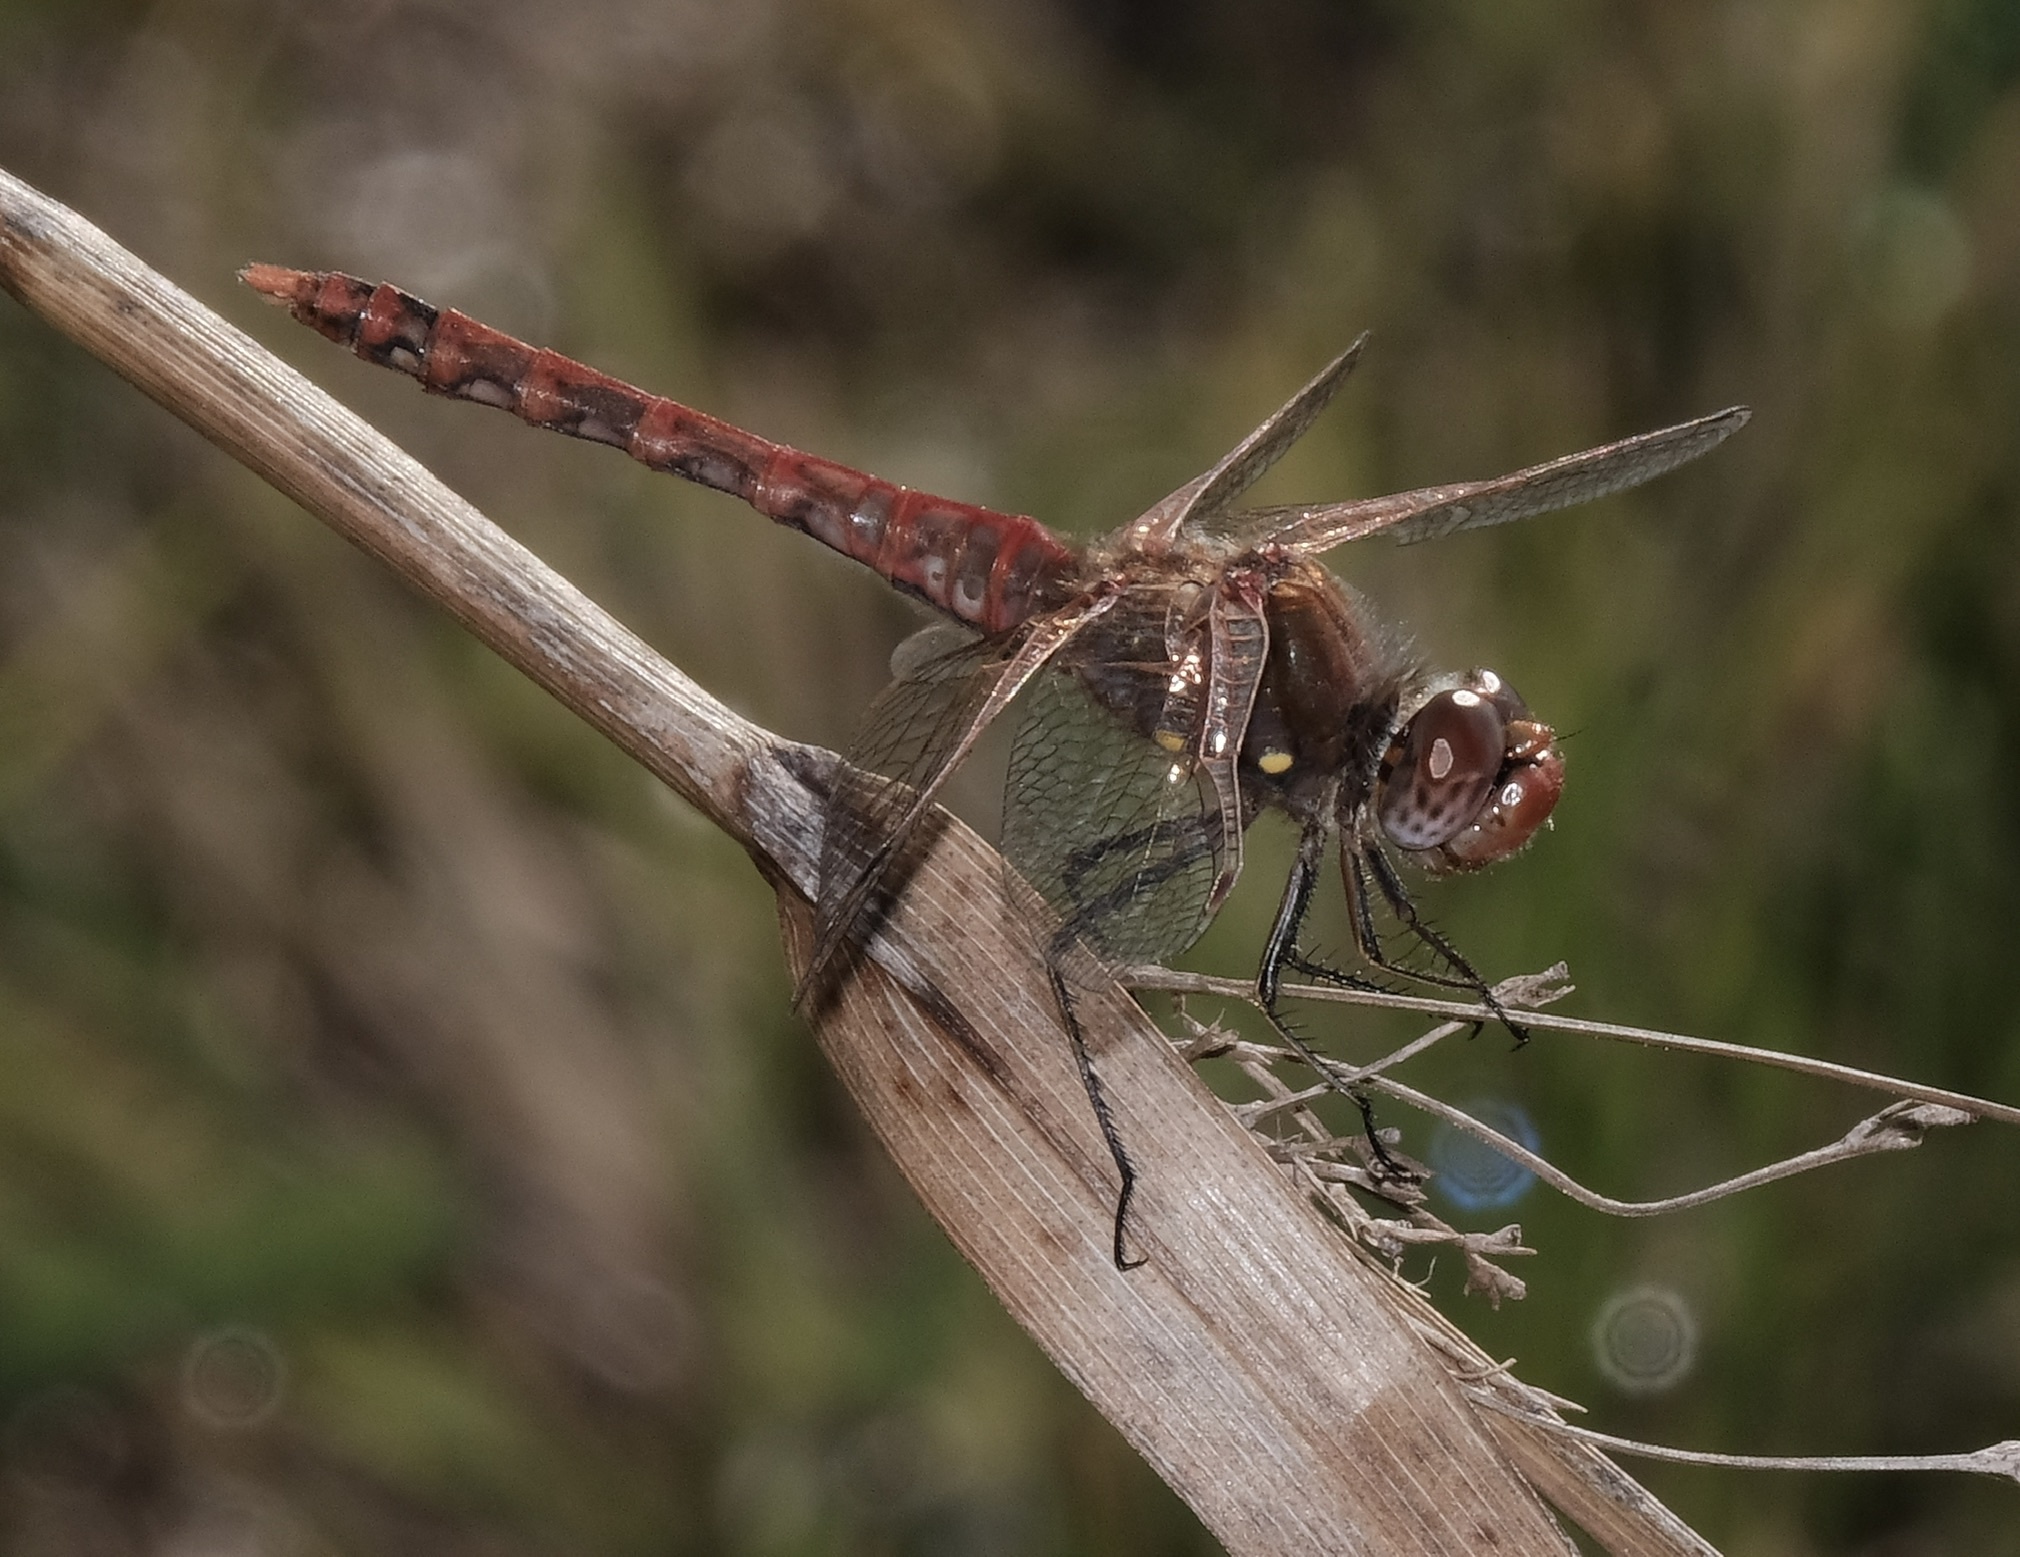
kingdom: Animalia
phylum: Arthropoda
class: Insecta
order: Odonata
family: Libellulidae
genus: Sympetrum
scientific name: Sympetrum corruptum
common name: Variegated meadowhawk
